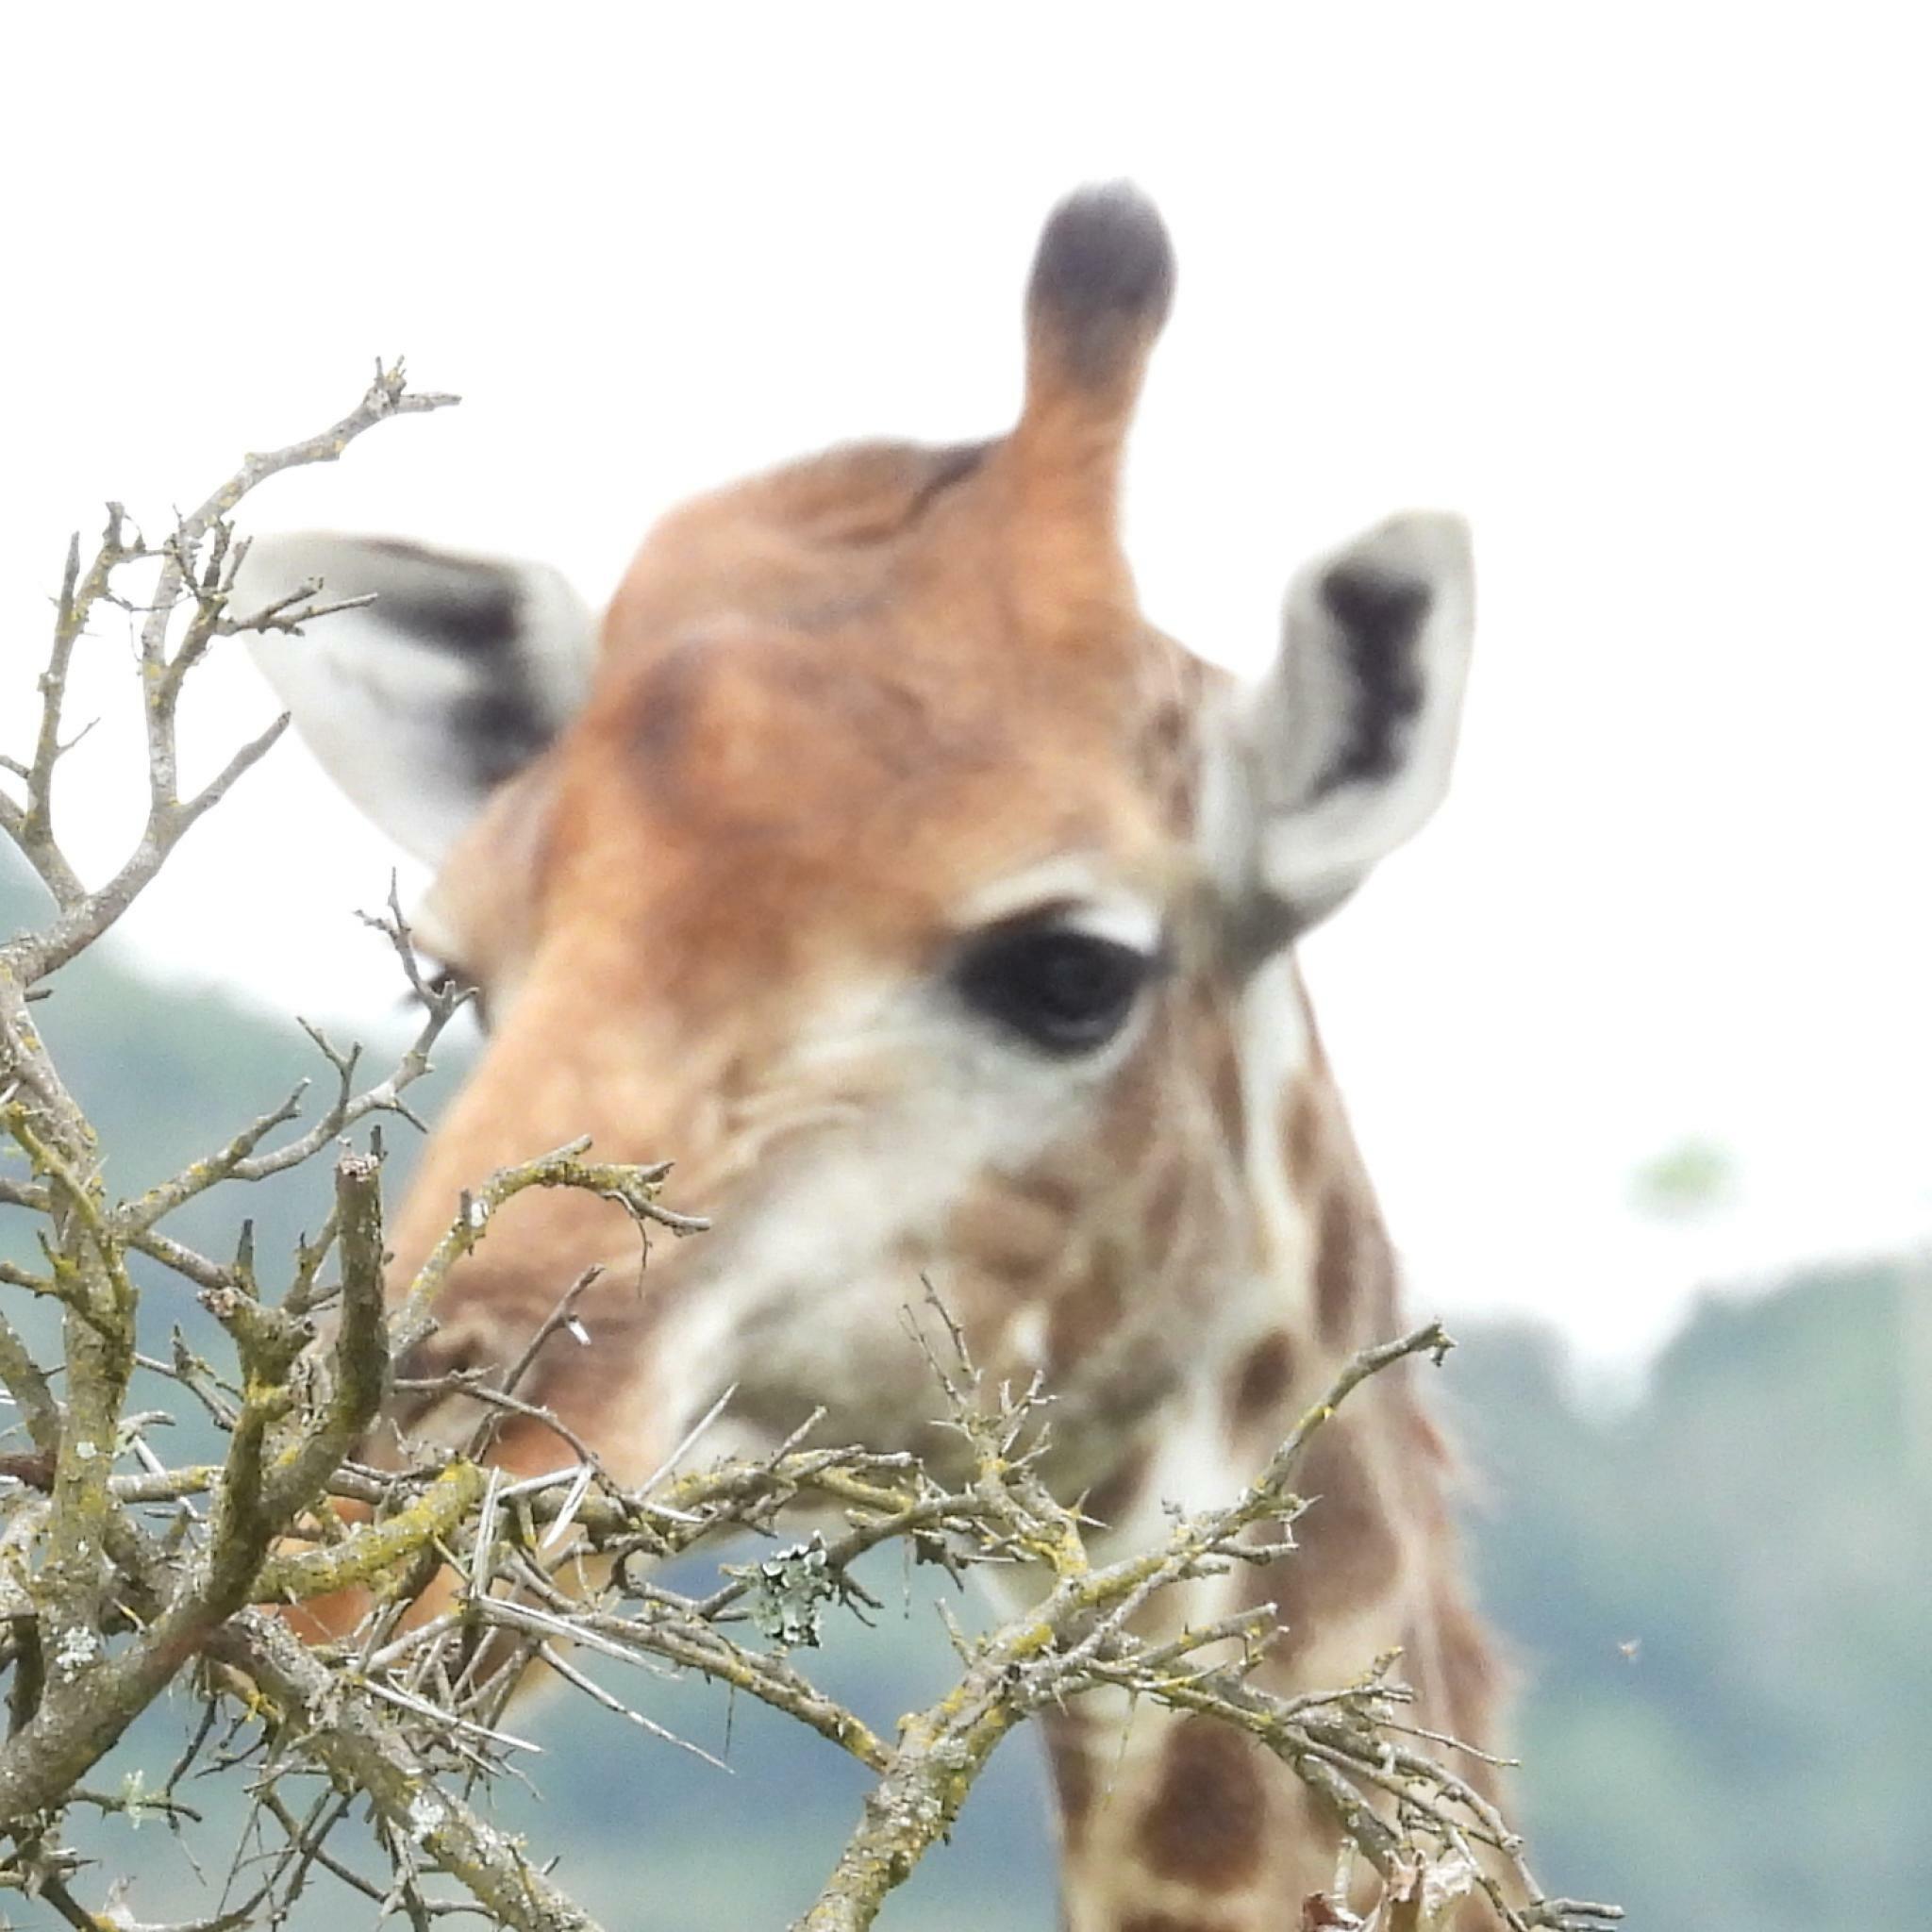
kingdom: Animalia
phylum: Chordata
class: Mammalia
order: Artiodactyla
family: Giraffidae
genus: Giraffa
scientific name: Giraffa giraffa
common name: Southern giraffe
